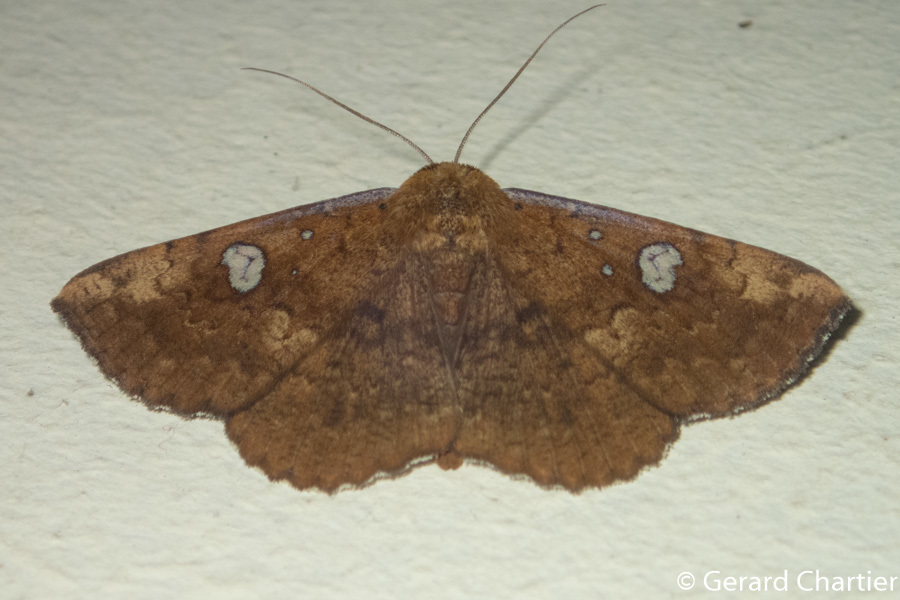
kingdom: Animalia
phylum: Arthropoda
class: Insecta
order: Lepidoptera
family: Erebidae
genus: Talariga
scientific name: Talariga capacior
